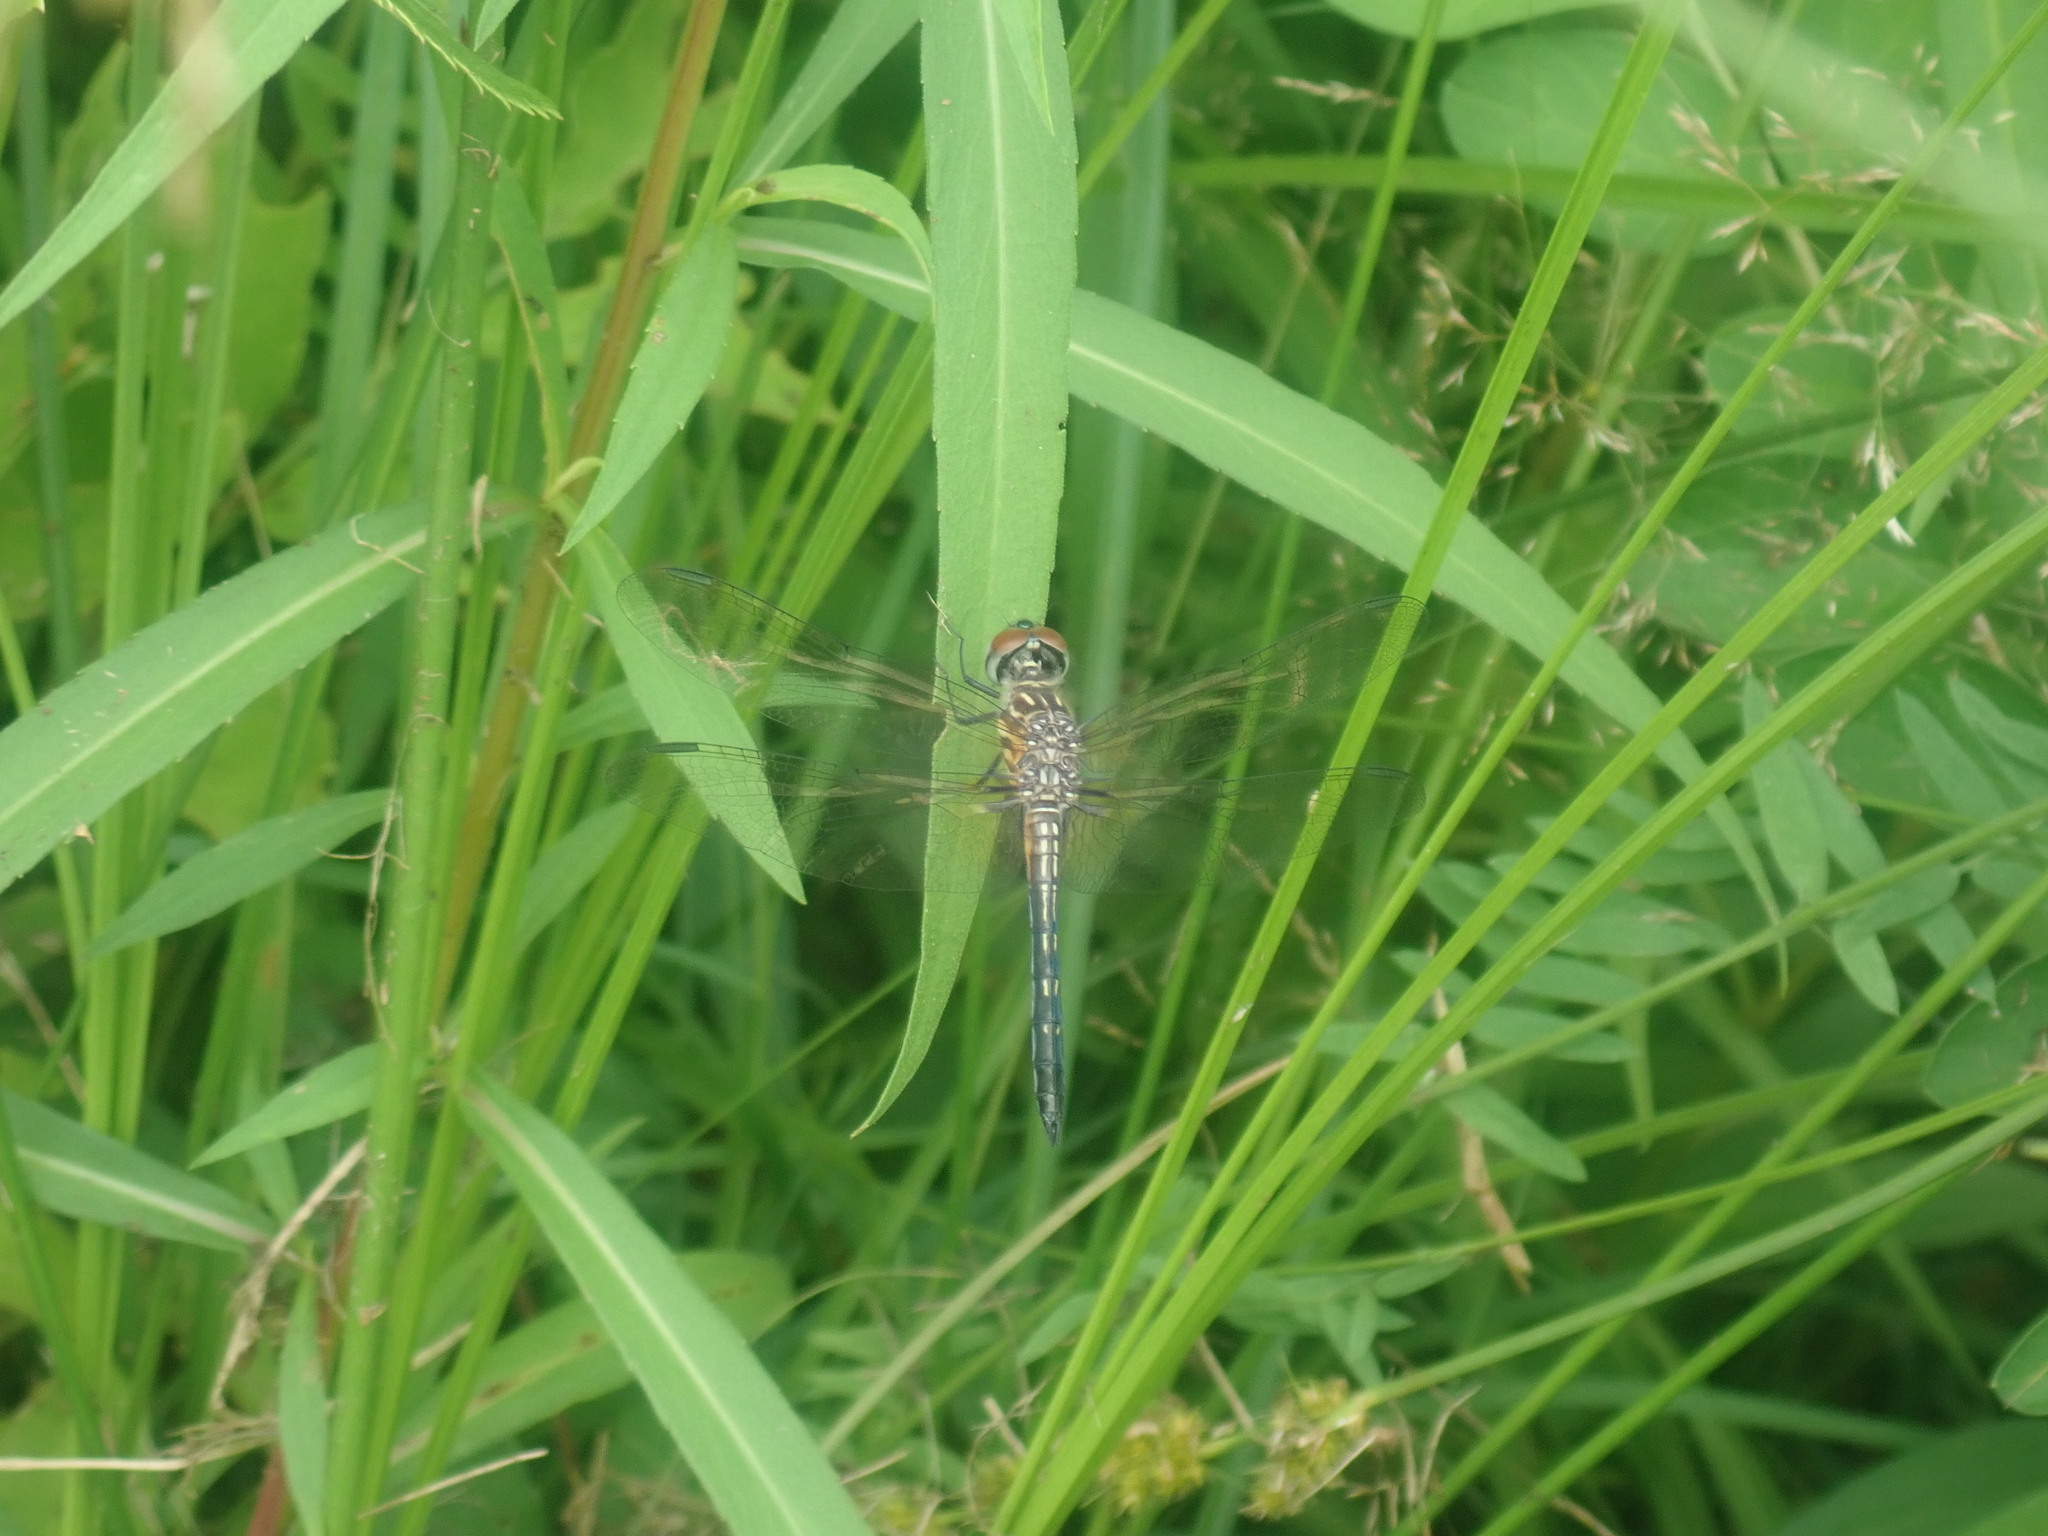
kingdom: Animalia
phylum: Arthropoda
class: Insecta
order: Odonata
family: Libellulidae
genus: Pachydiplax
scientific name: Pachydiplax longipennis
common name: Blue dasher
